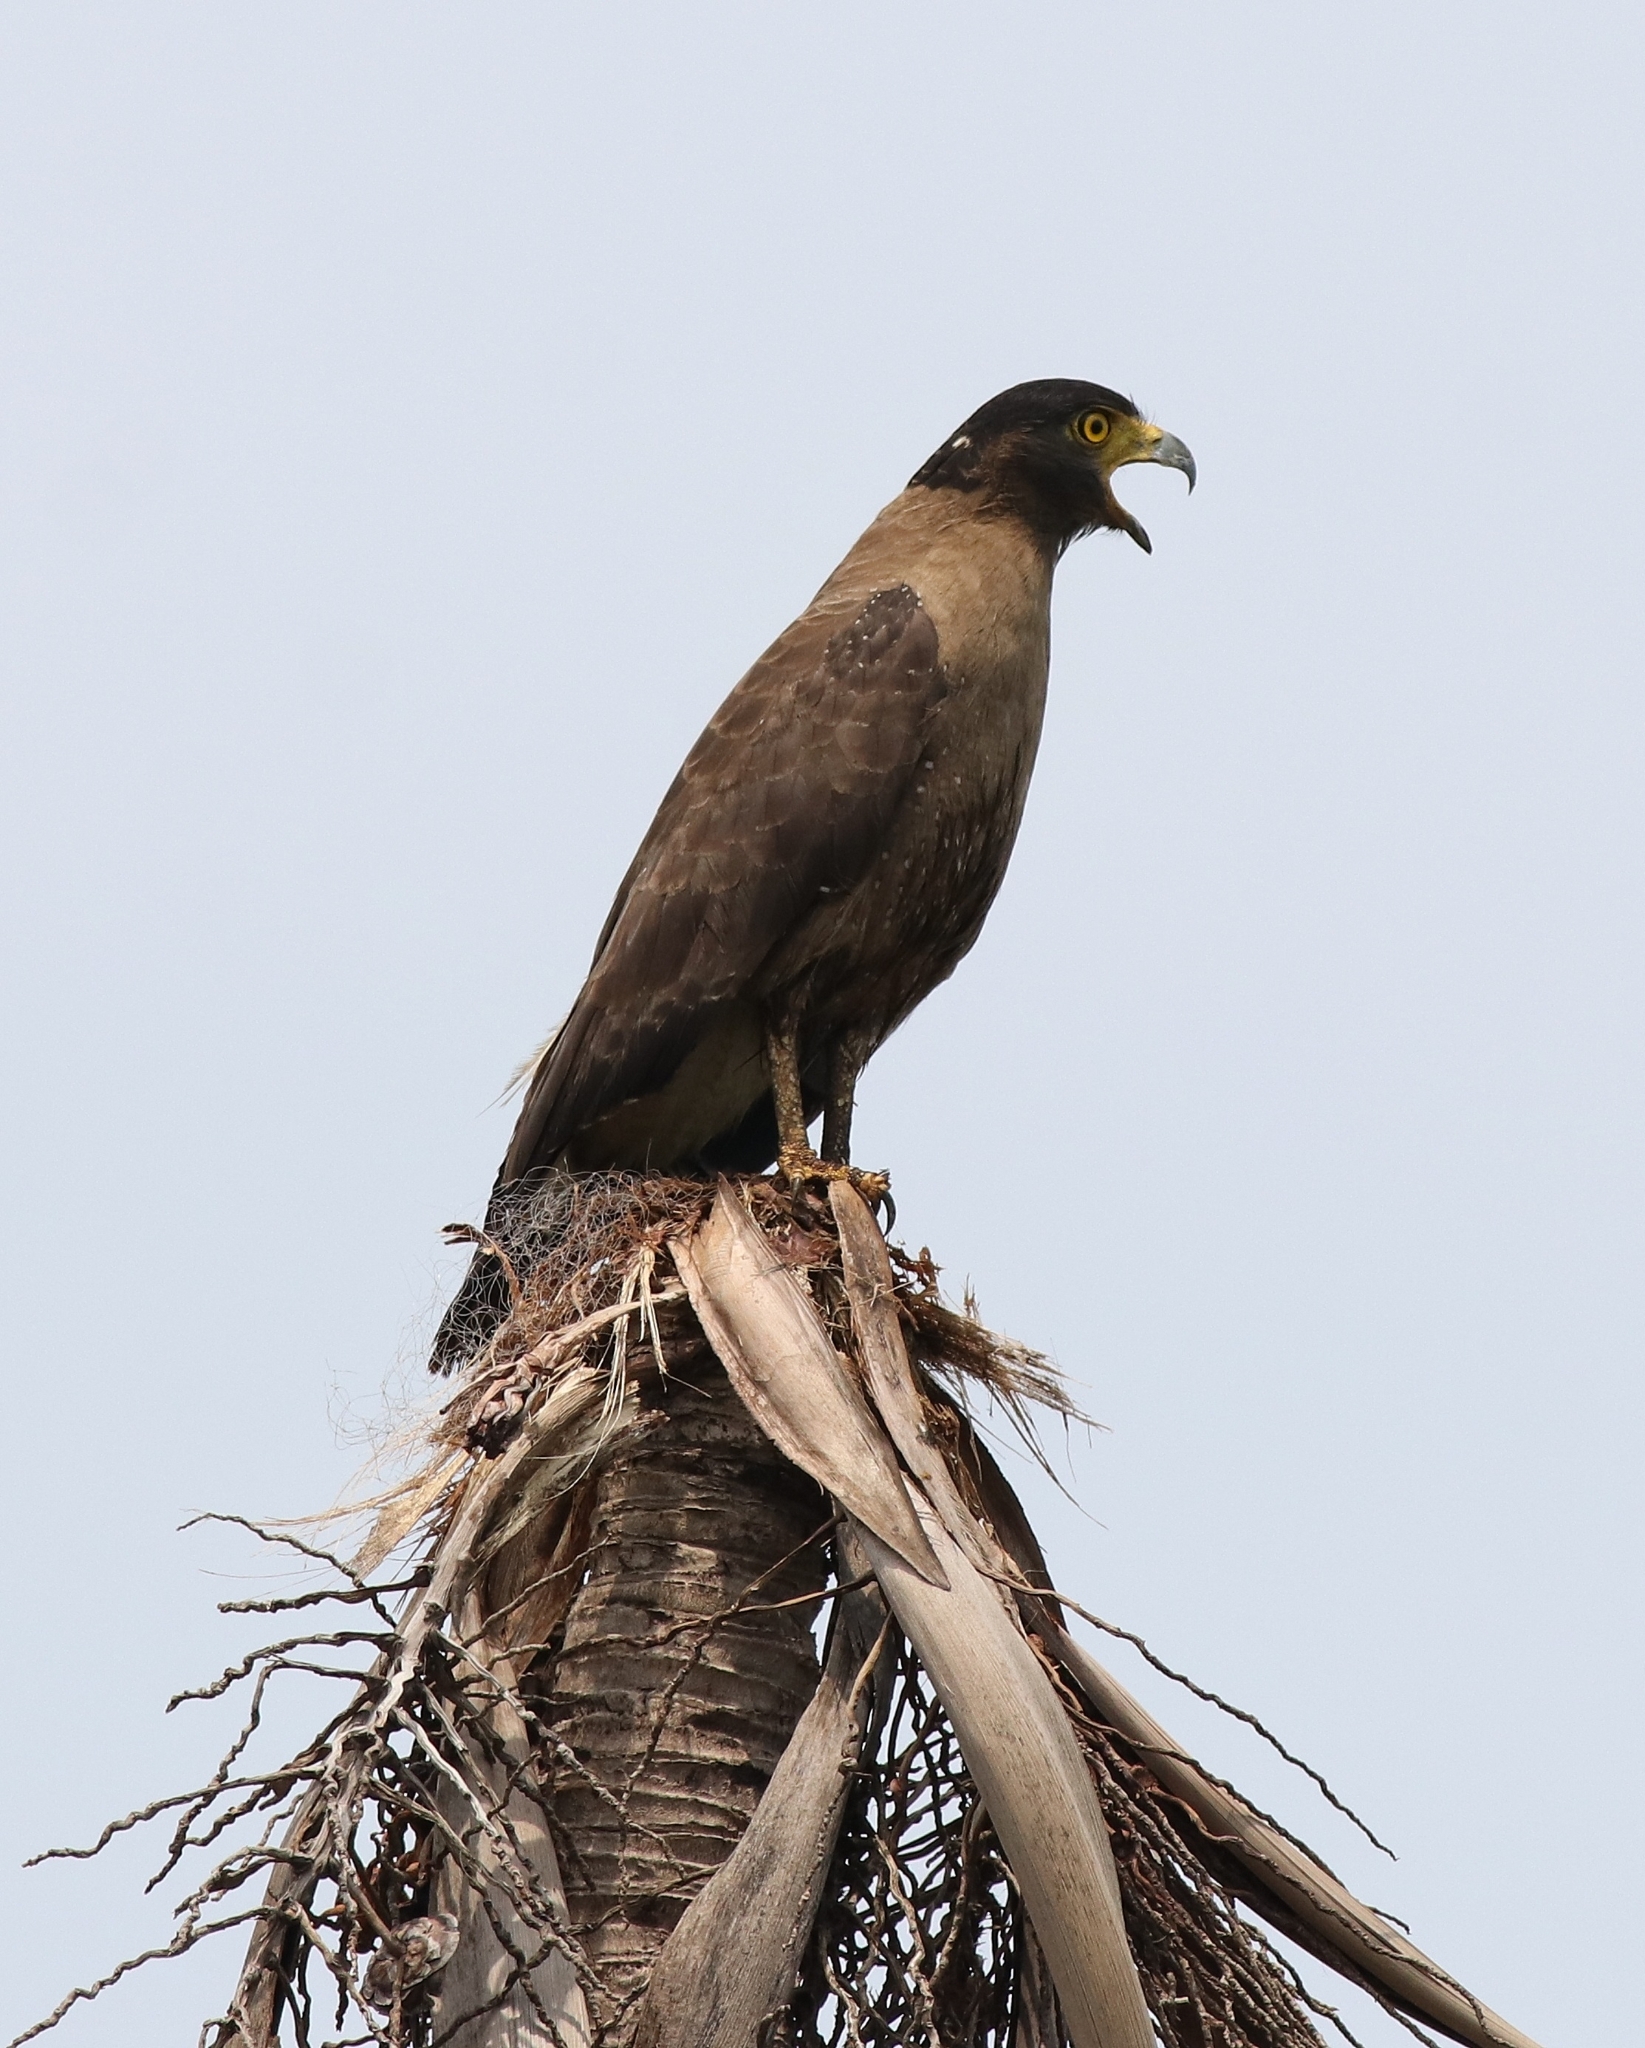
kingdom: Animalia
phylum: Chordata
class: Aves
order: Accipitriformes
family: Accipitridae
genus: Spilornis
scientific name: Spilornis cheela
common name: Crested serpent eagle
